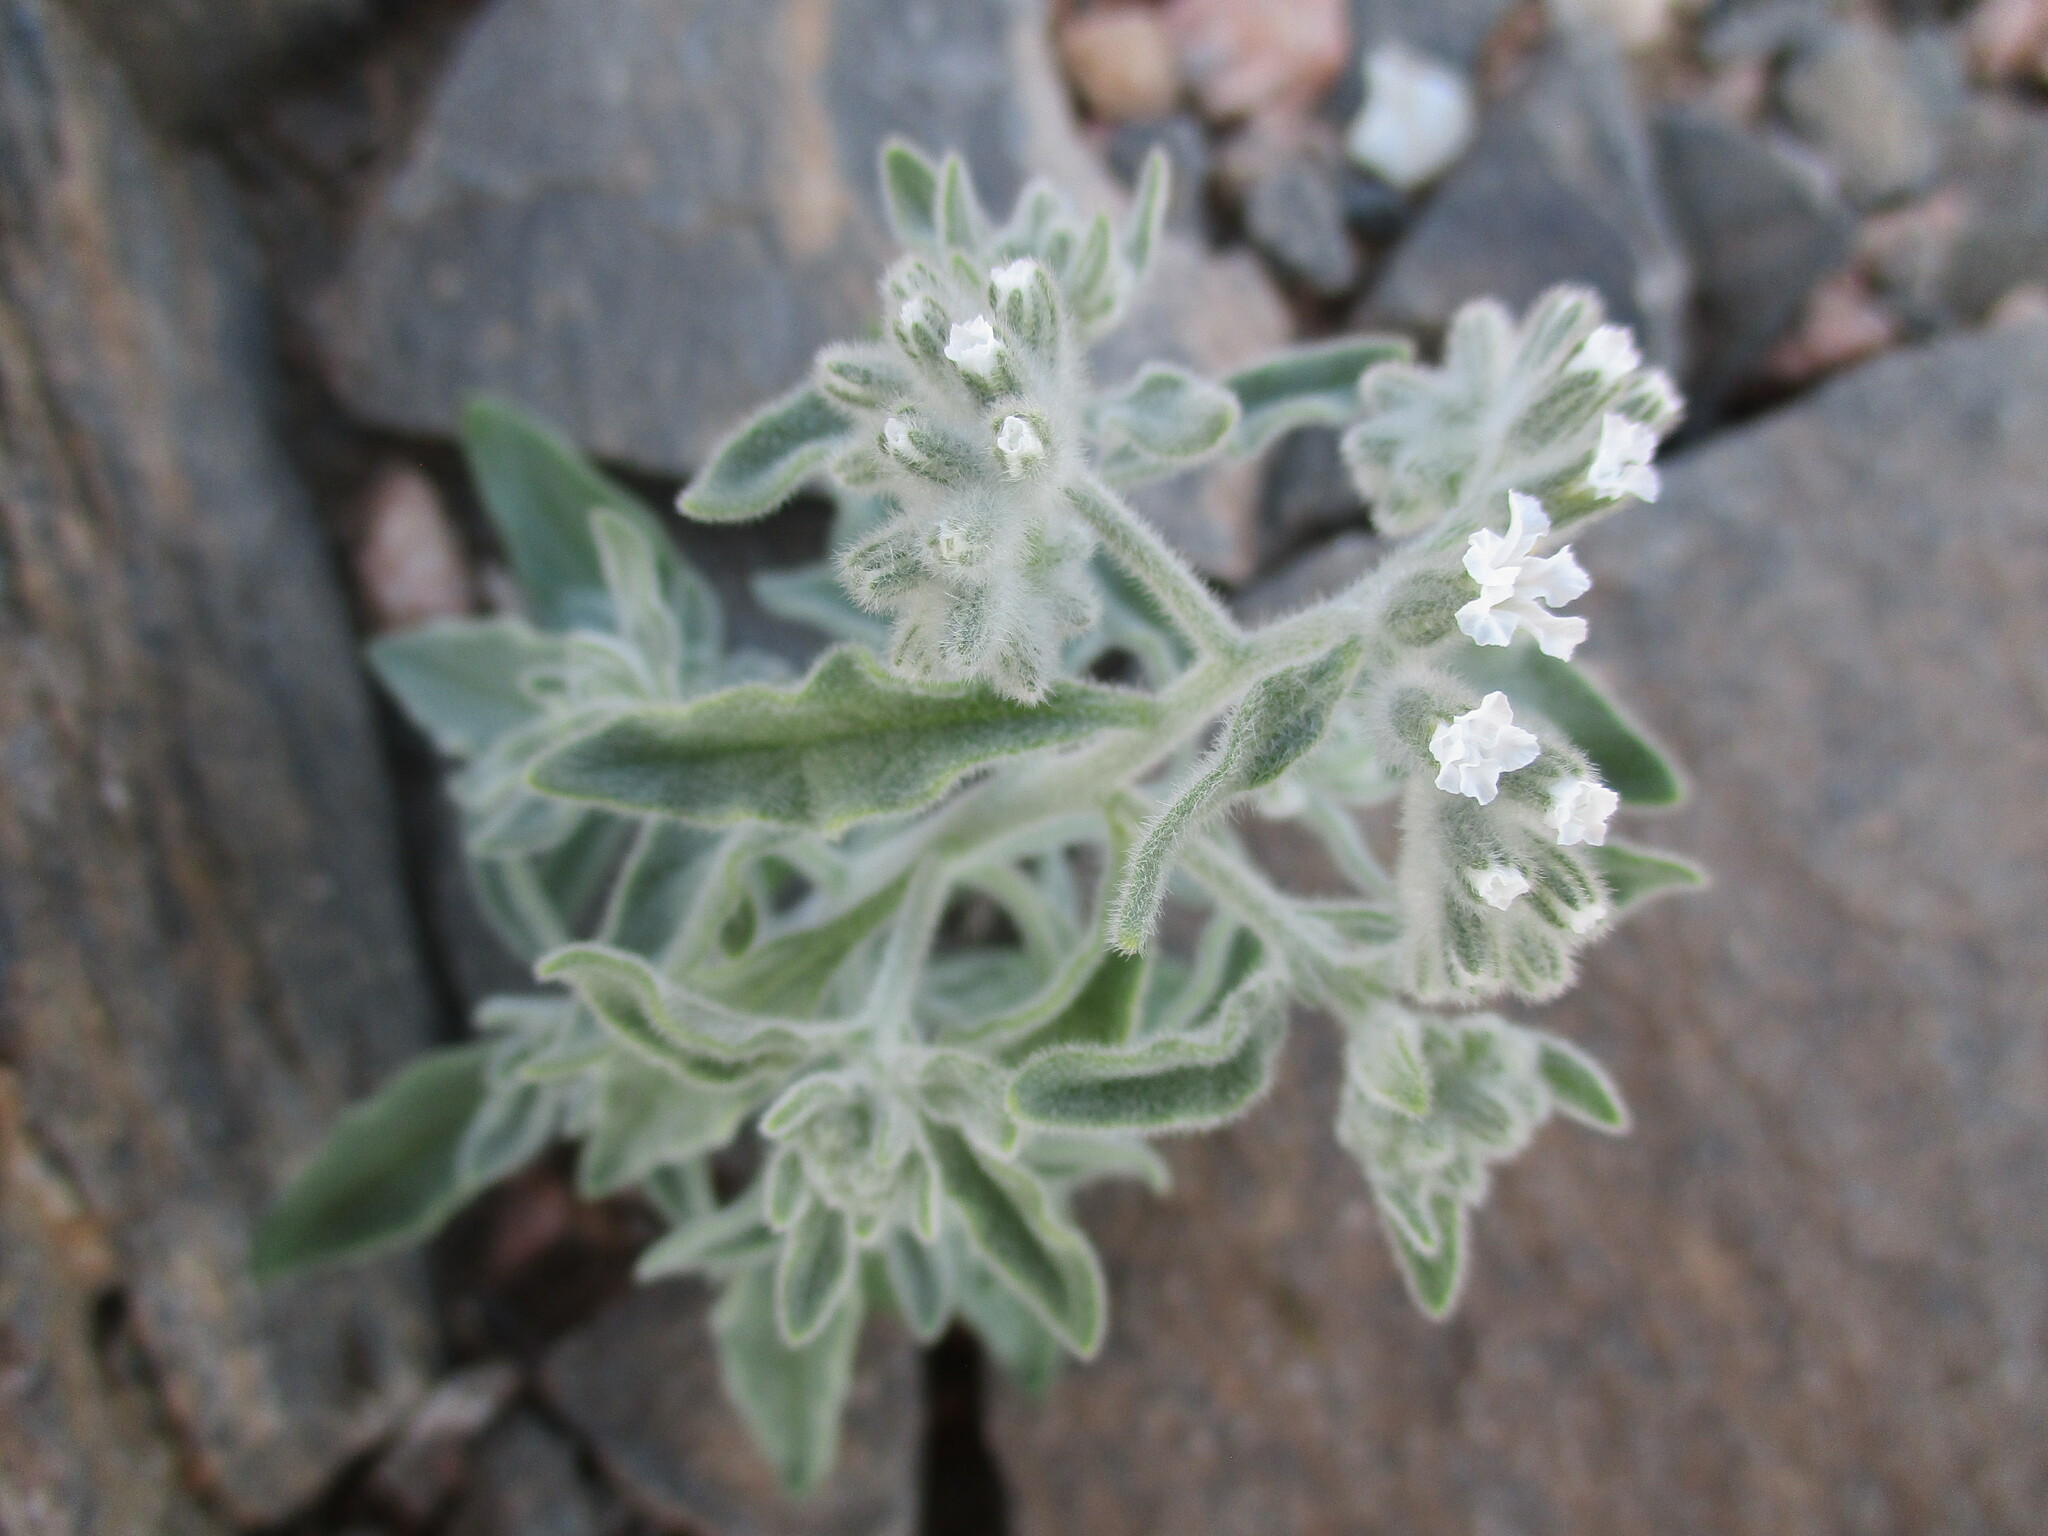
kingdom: Plantae
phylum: Tracheophyta
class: Magnoliopsida
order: Boraginales
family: Heliotropiaceae
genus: Heliotropium
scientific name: Heliotropium tubulosum
